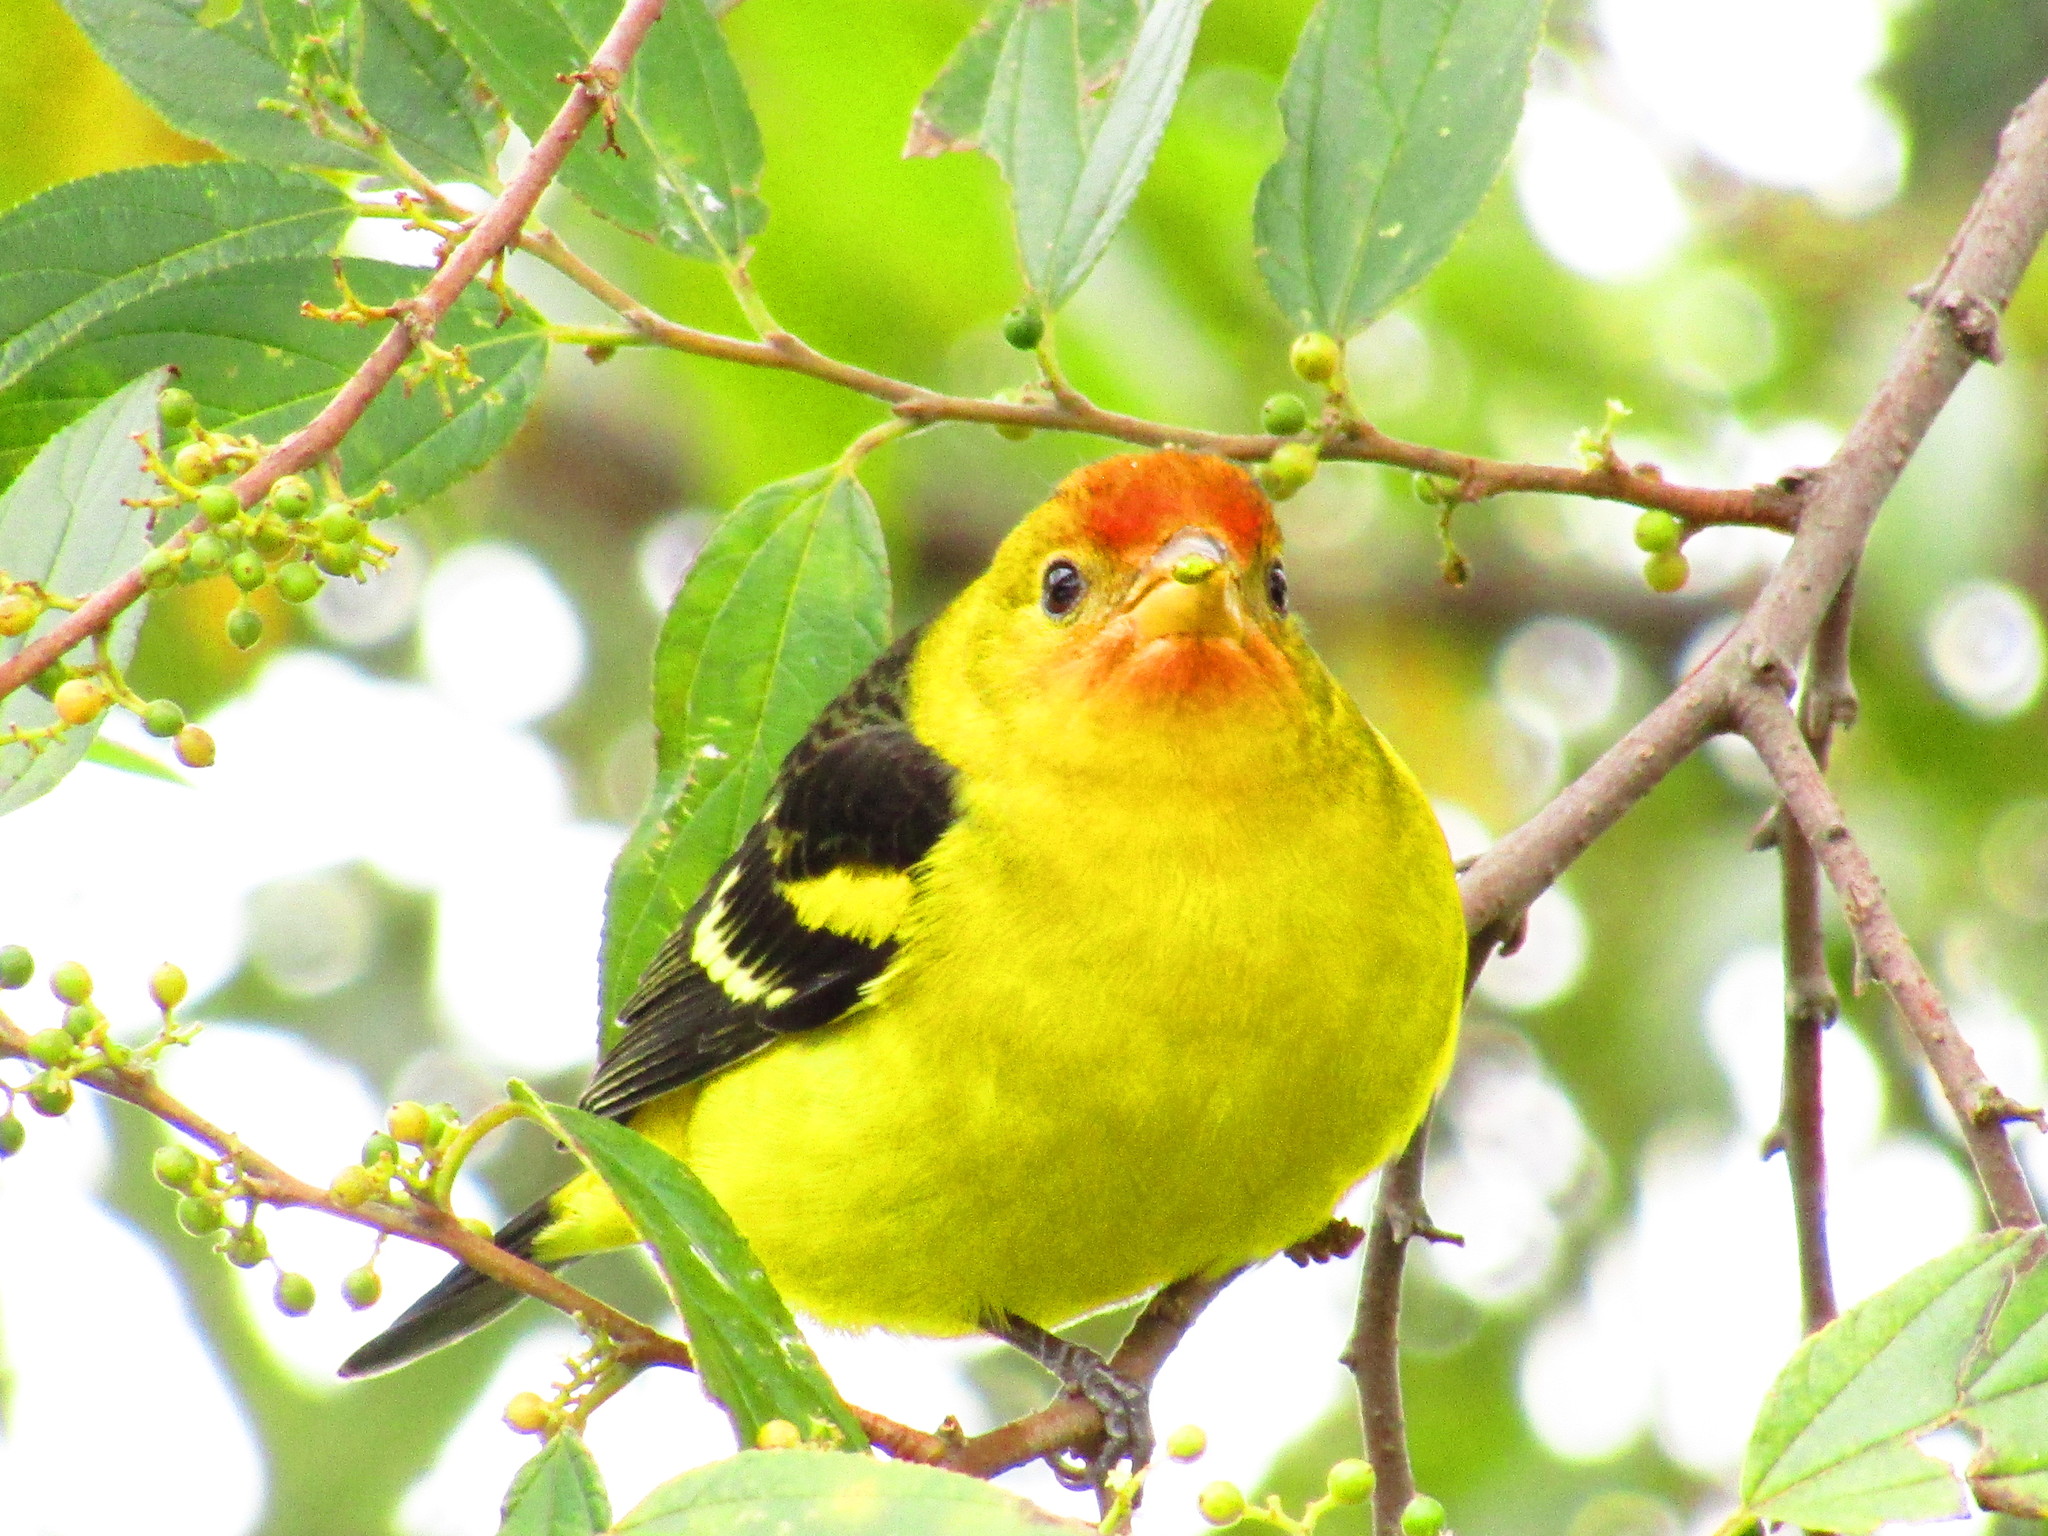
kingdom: Animalia
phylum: Chordata
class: Aves
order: Passeriformes
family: Cardinalidae
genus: Piranga
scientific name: Piranga ludoviciana
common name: Western tanager
